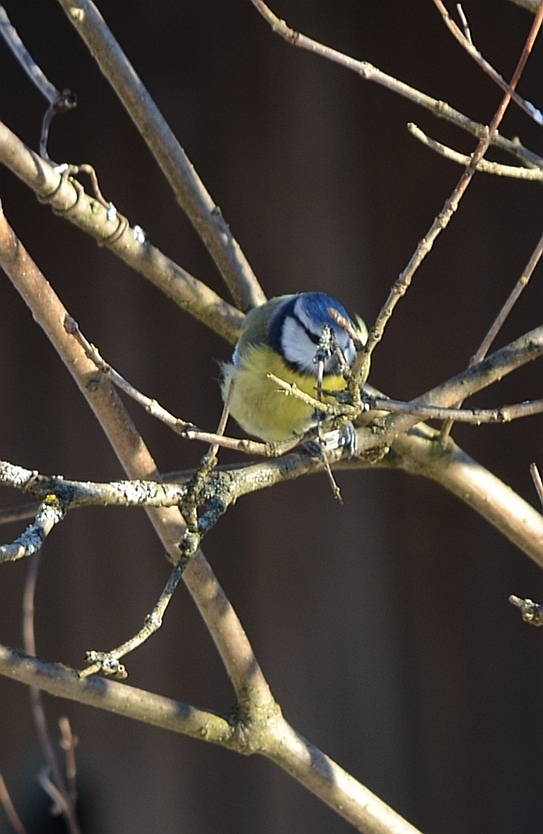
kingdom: Animalia
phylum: Chordata
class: Aves
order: Passeriformes
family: Paridae
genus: Cyanistes
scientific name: Cyanistes caeruleus
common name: Eurasian blue tit
